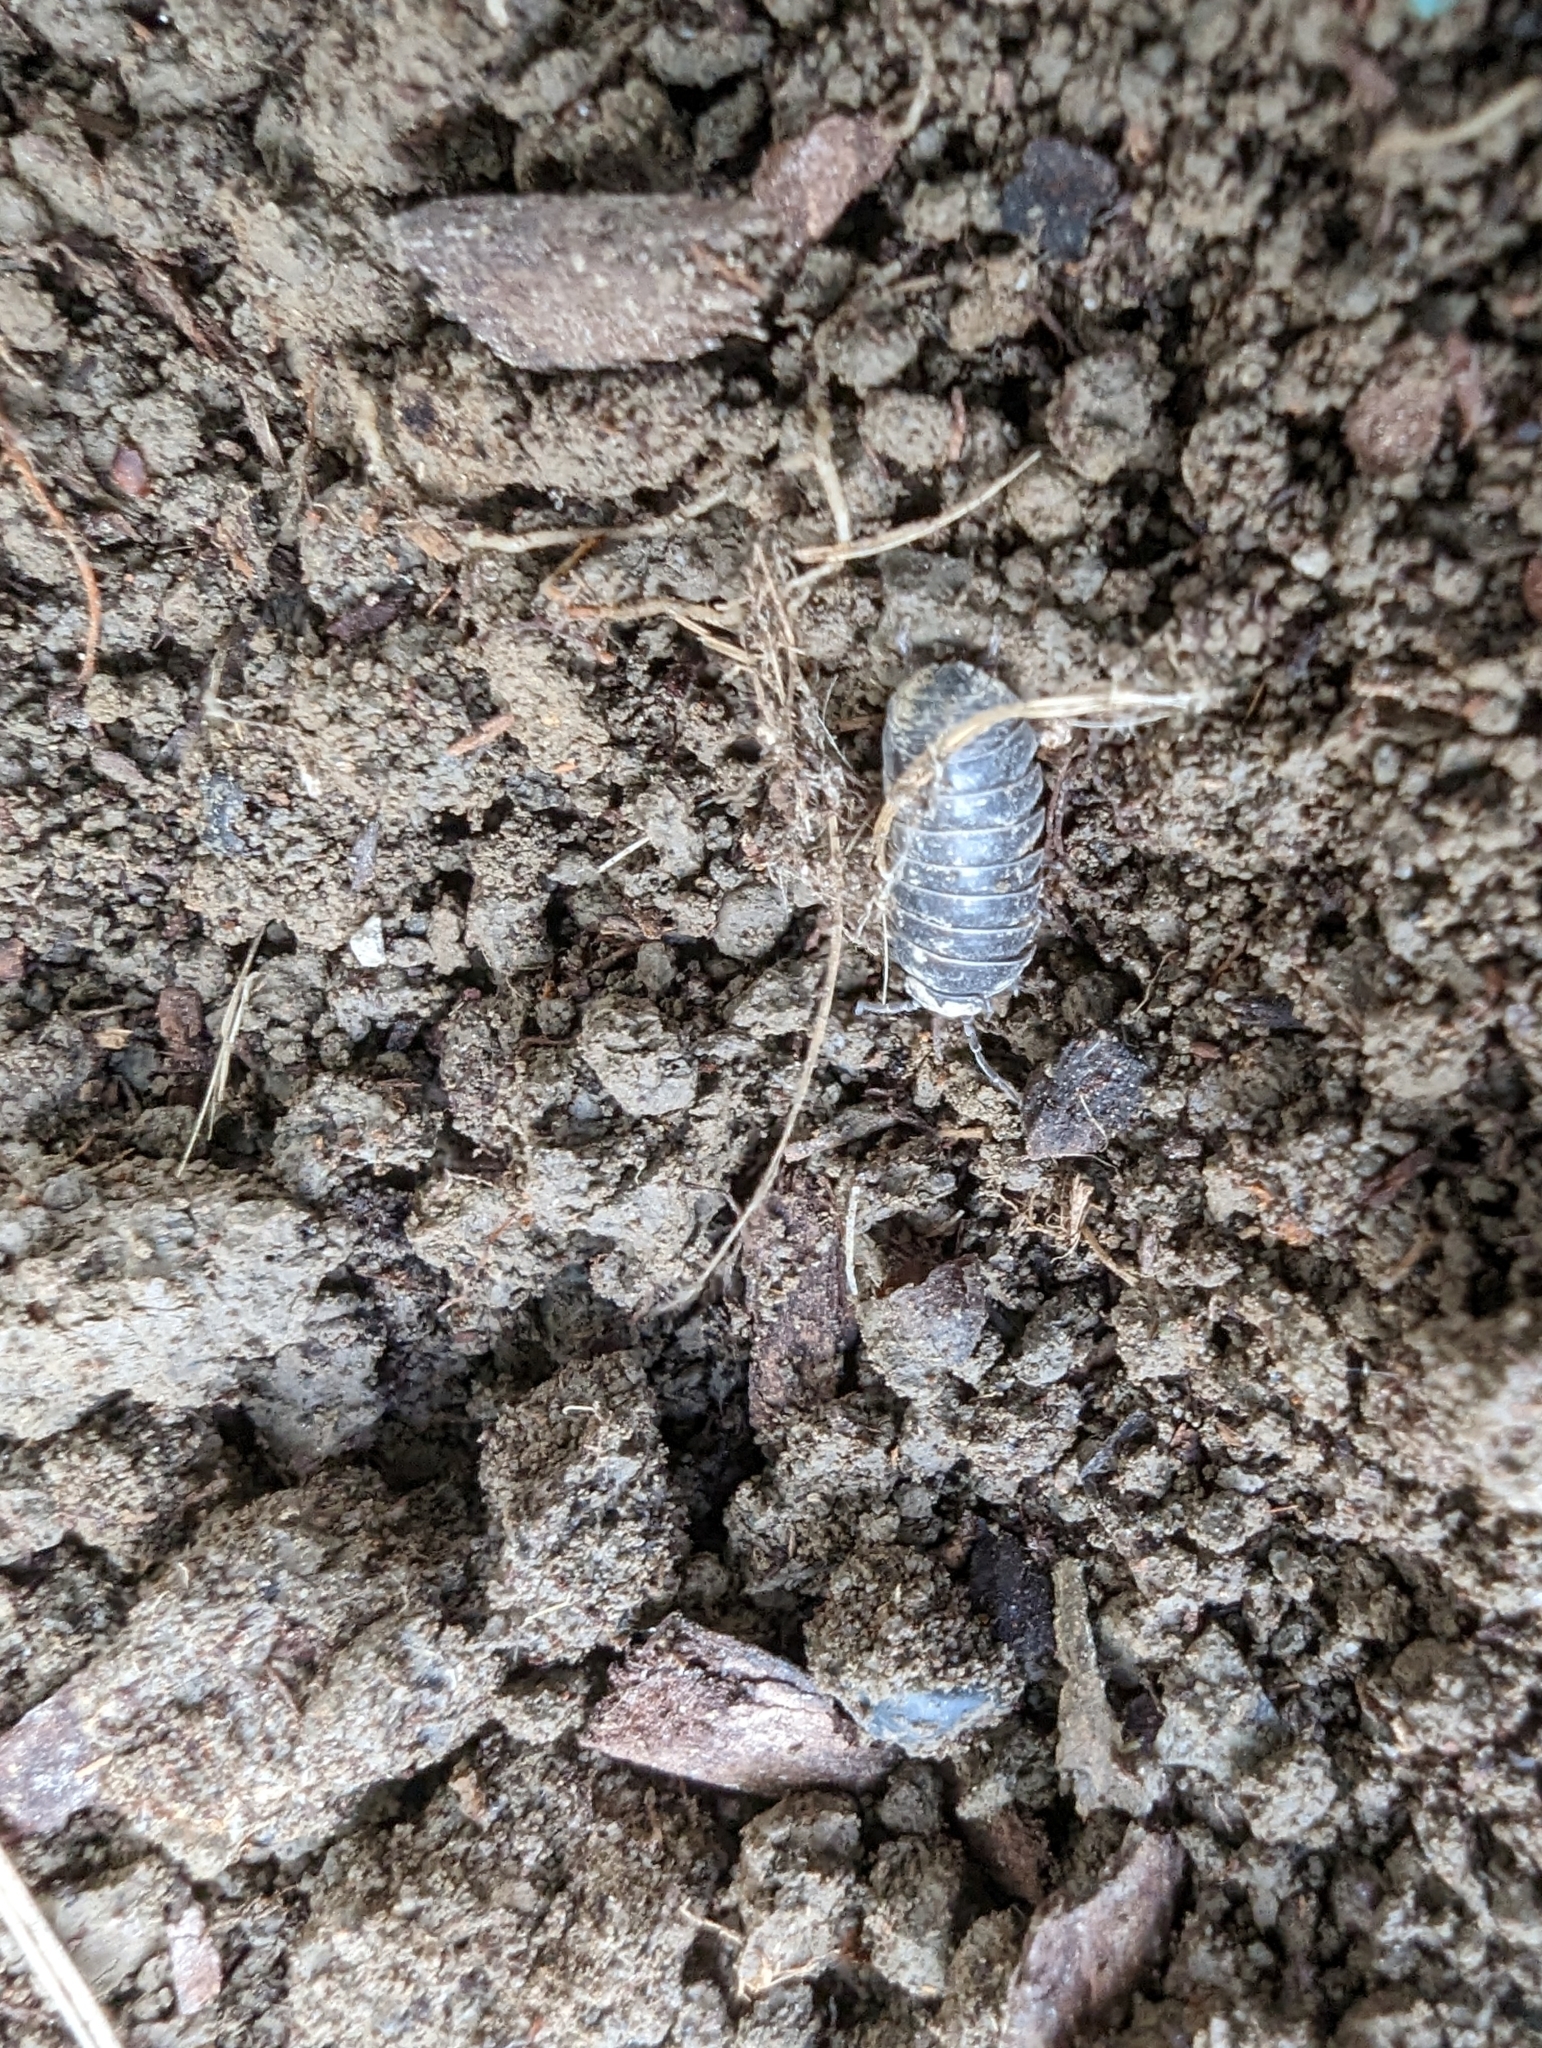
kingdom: Animalia
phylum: Arthropoda
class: Malacostraca
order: Isopoda
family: Armadillidiidae
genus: Armadillidium
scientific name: Armadillidium vulgare
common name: Common pill woodlouse
